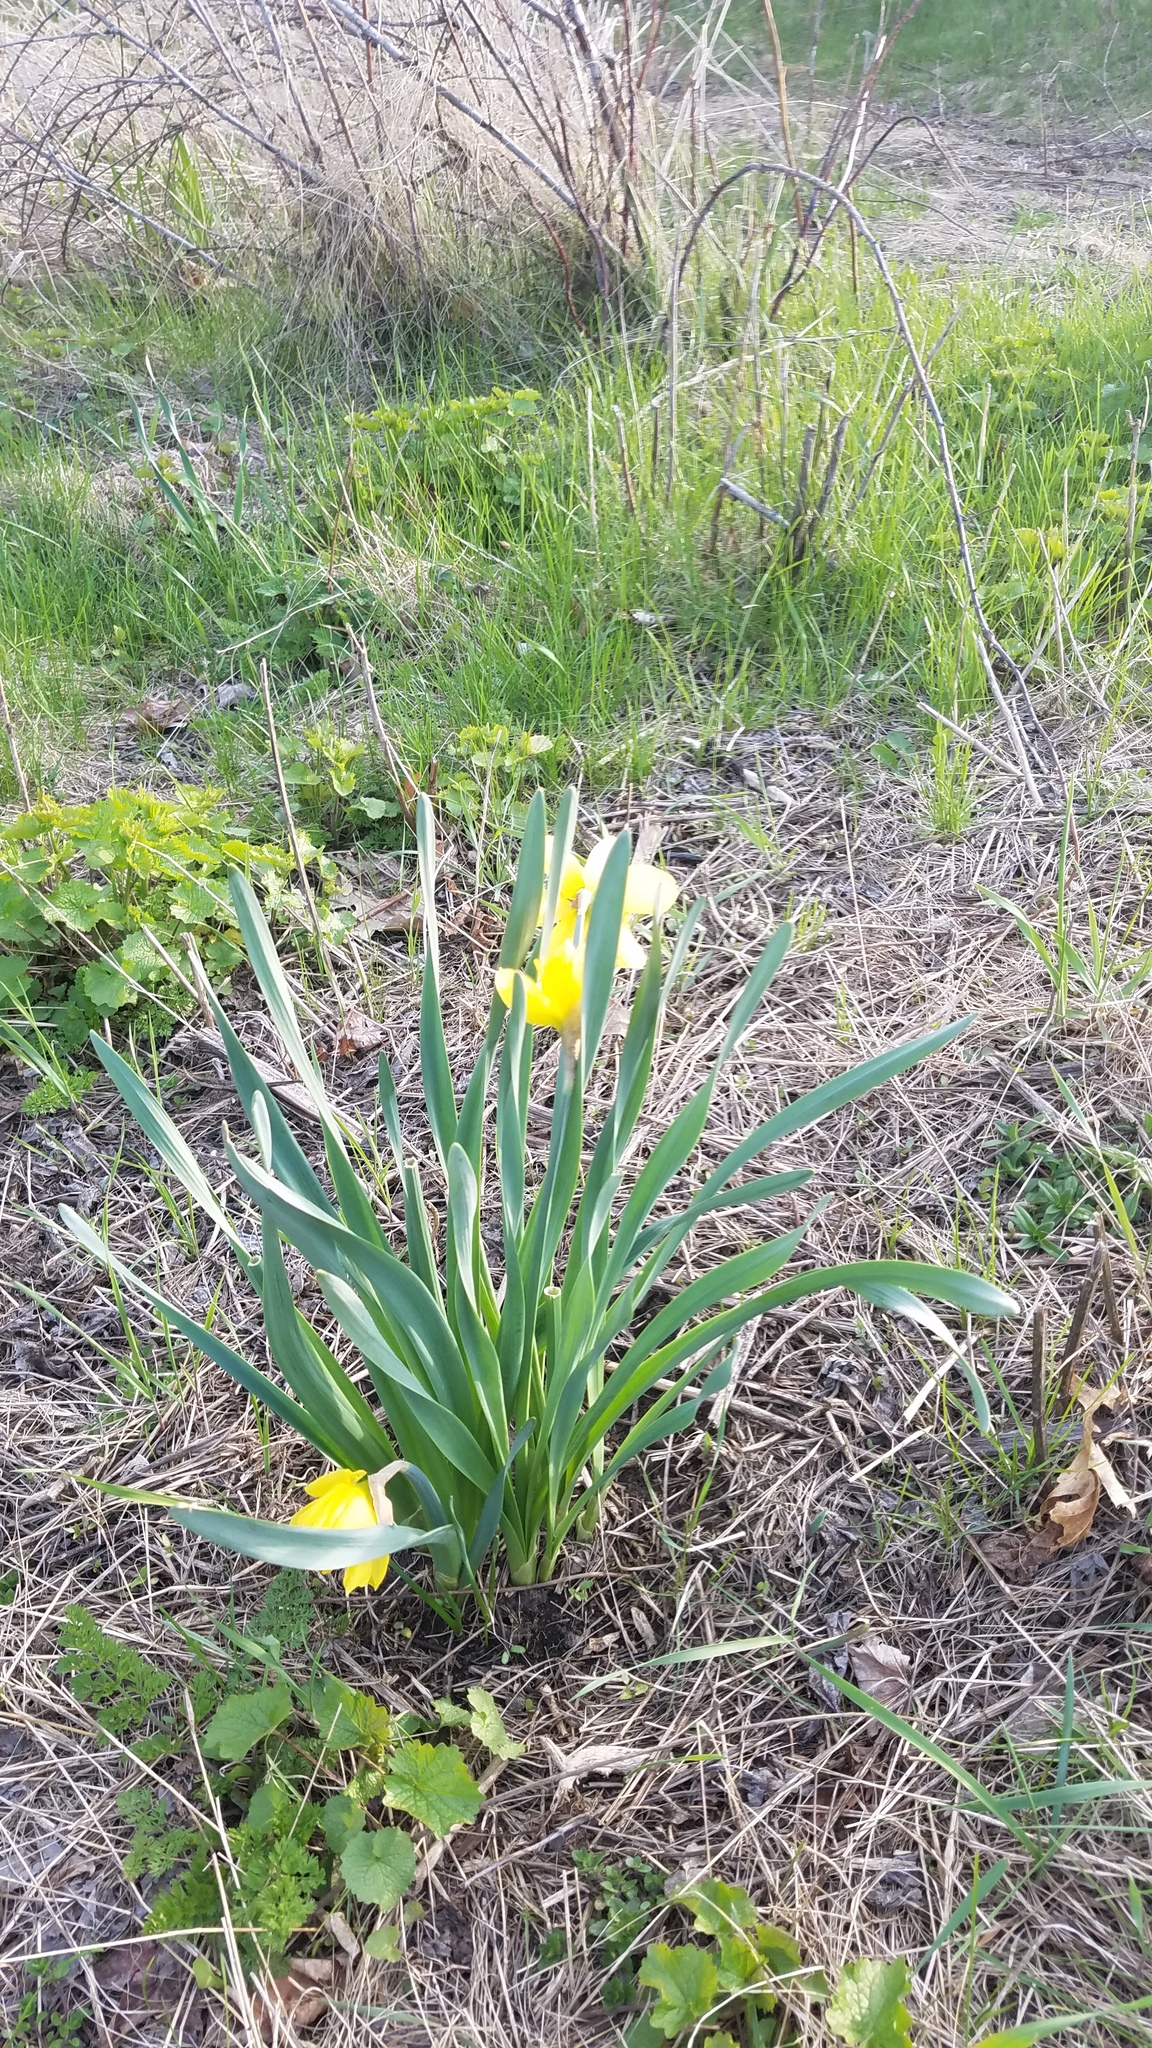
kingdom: Plantae
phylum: Tracheophyta
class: Liliopsida
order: Asparagales
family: Amaryllidaceae
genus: Narcissus
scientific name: Narcissus pseudonarcissus
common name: Daffodil
